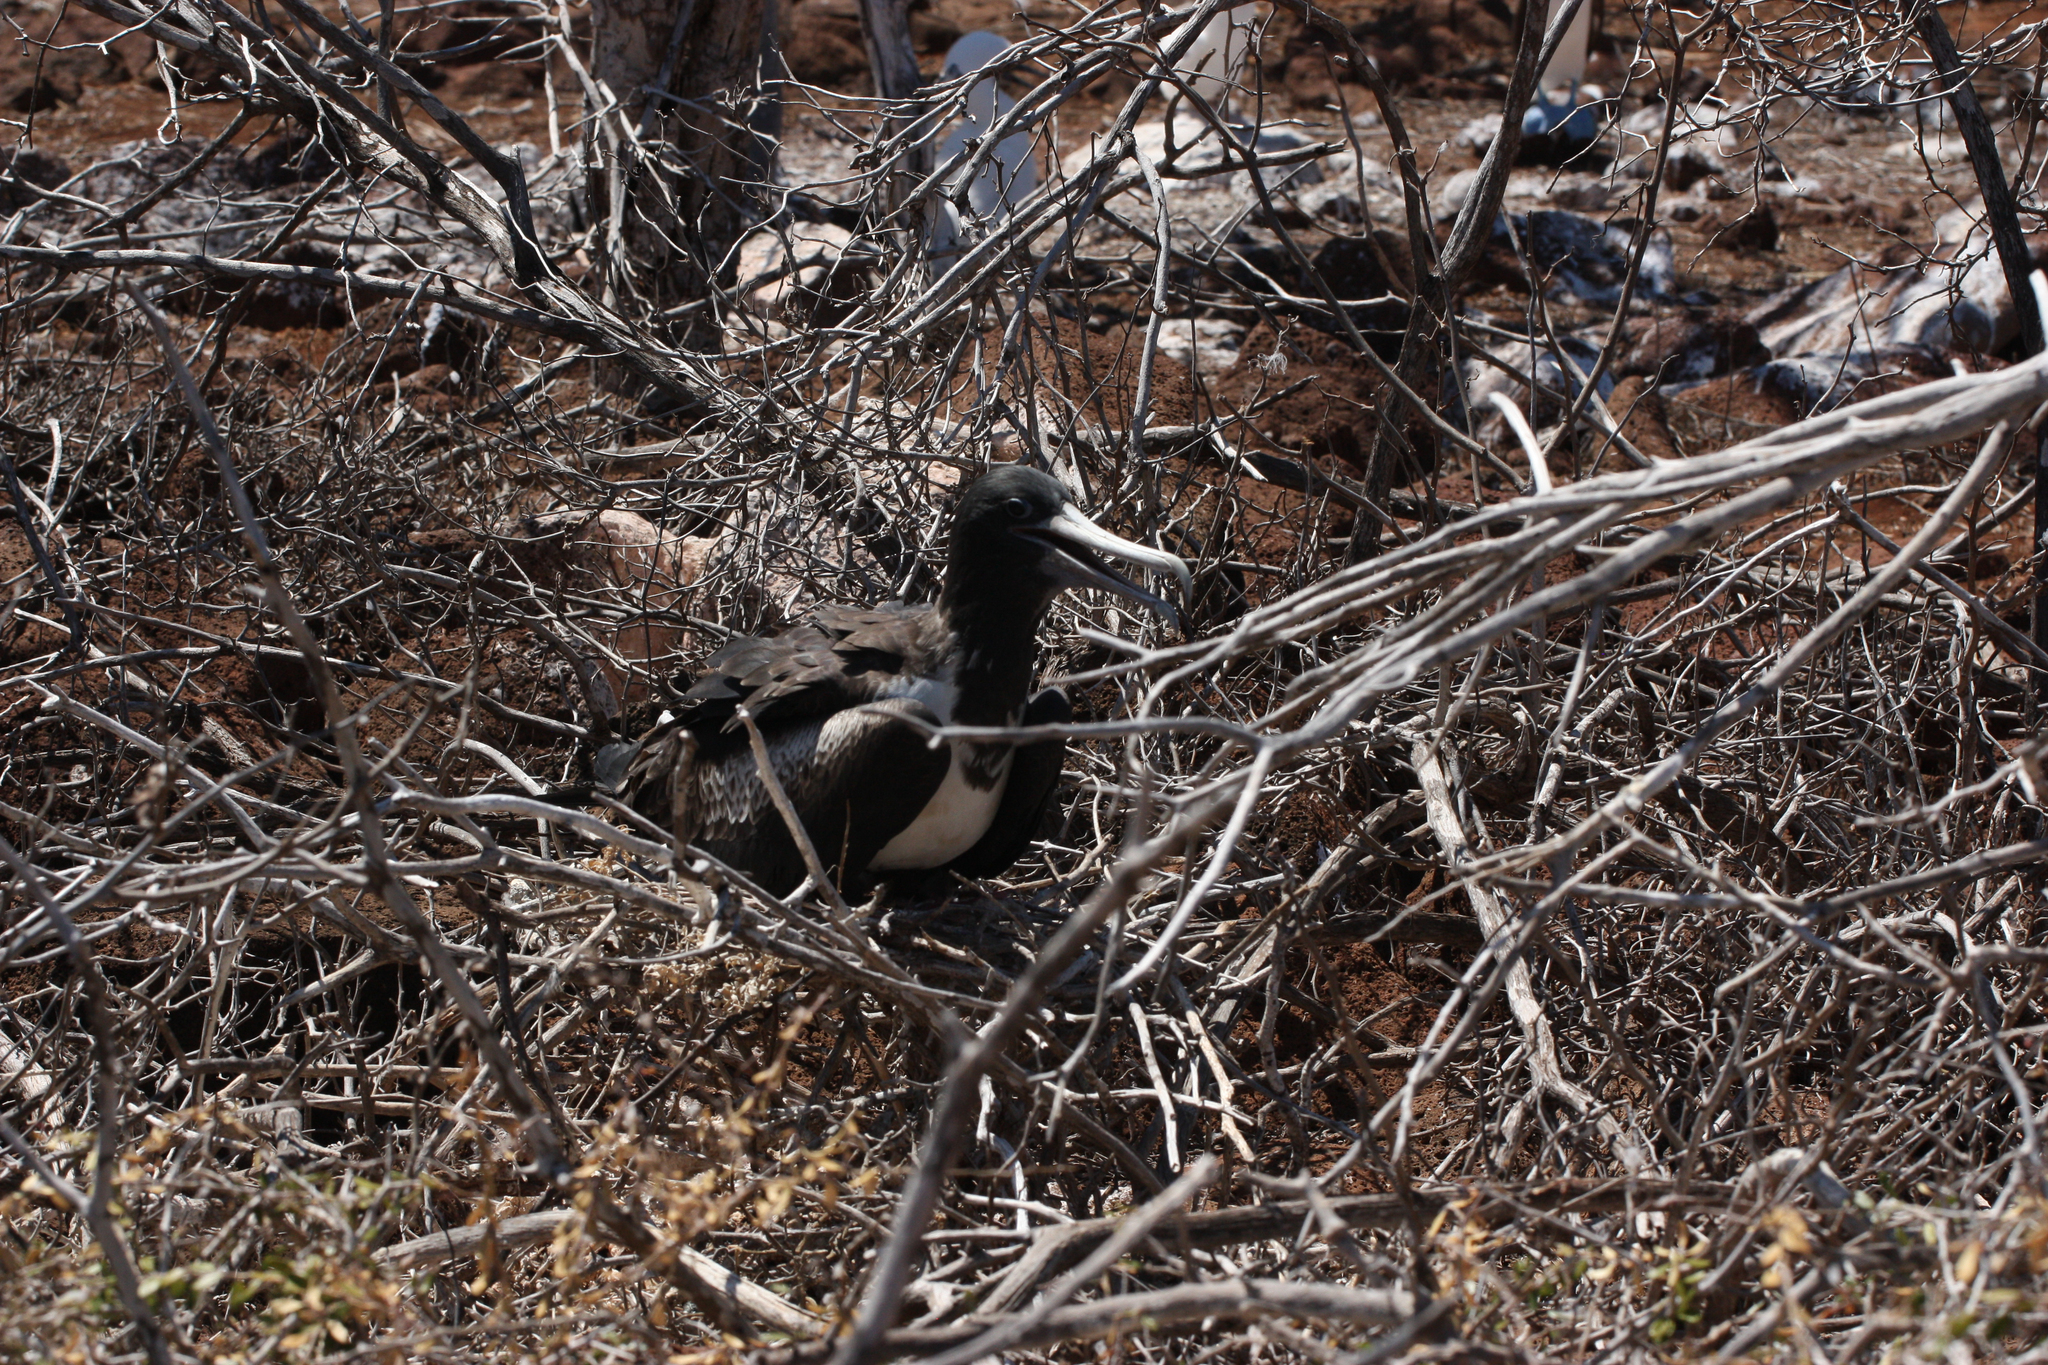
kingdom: Animalia
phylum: Chordata
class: Aves
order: Suliformes
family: Fregatidae
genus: Fregata
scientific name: Fregata magnificens
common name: Magnificent frigatebird
